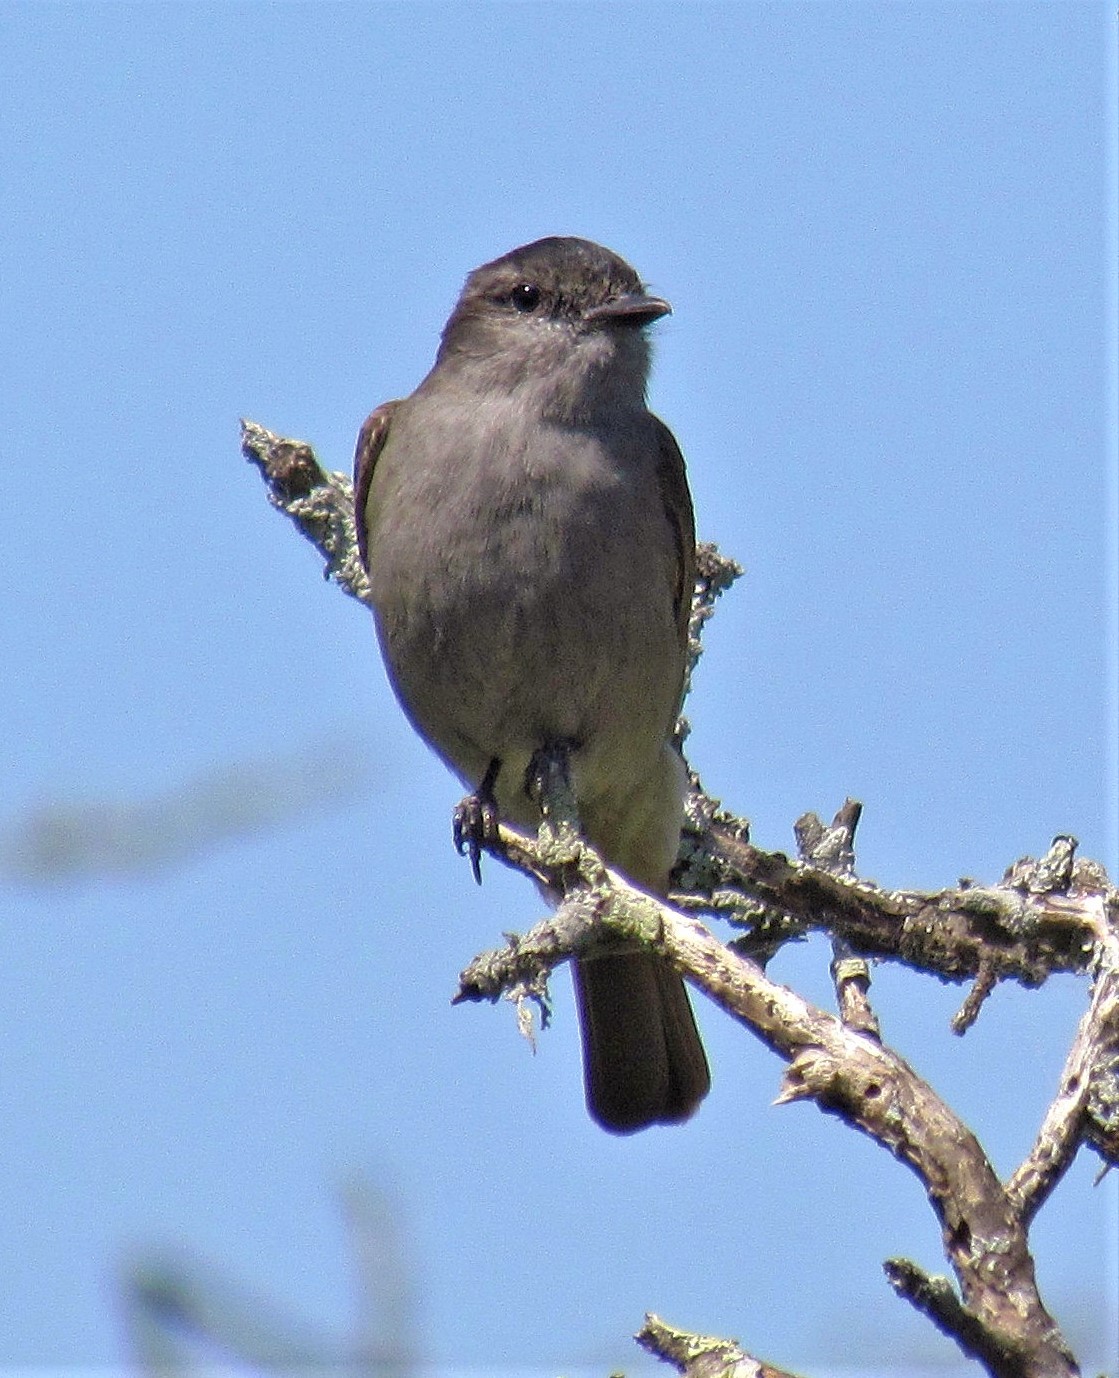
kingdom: Animalia
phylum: Chordata
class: Aves
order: Passeriformes
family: Tyrannidae
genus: Empidonomus
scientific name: Empidonomus aurantioatrocristatus
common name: Crowned slaty flycatcher
